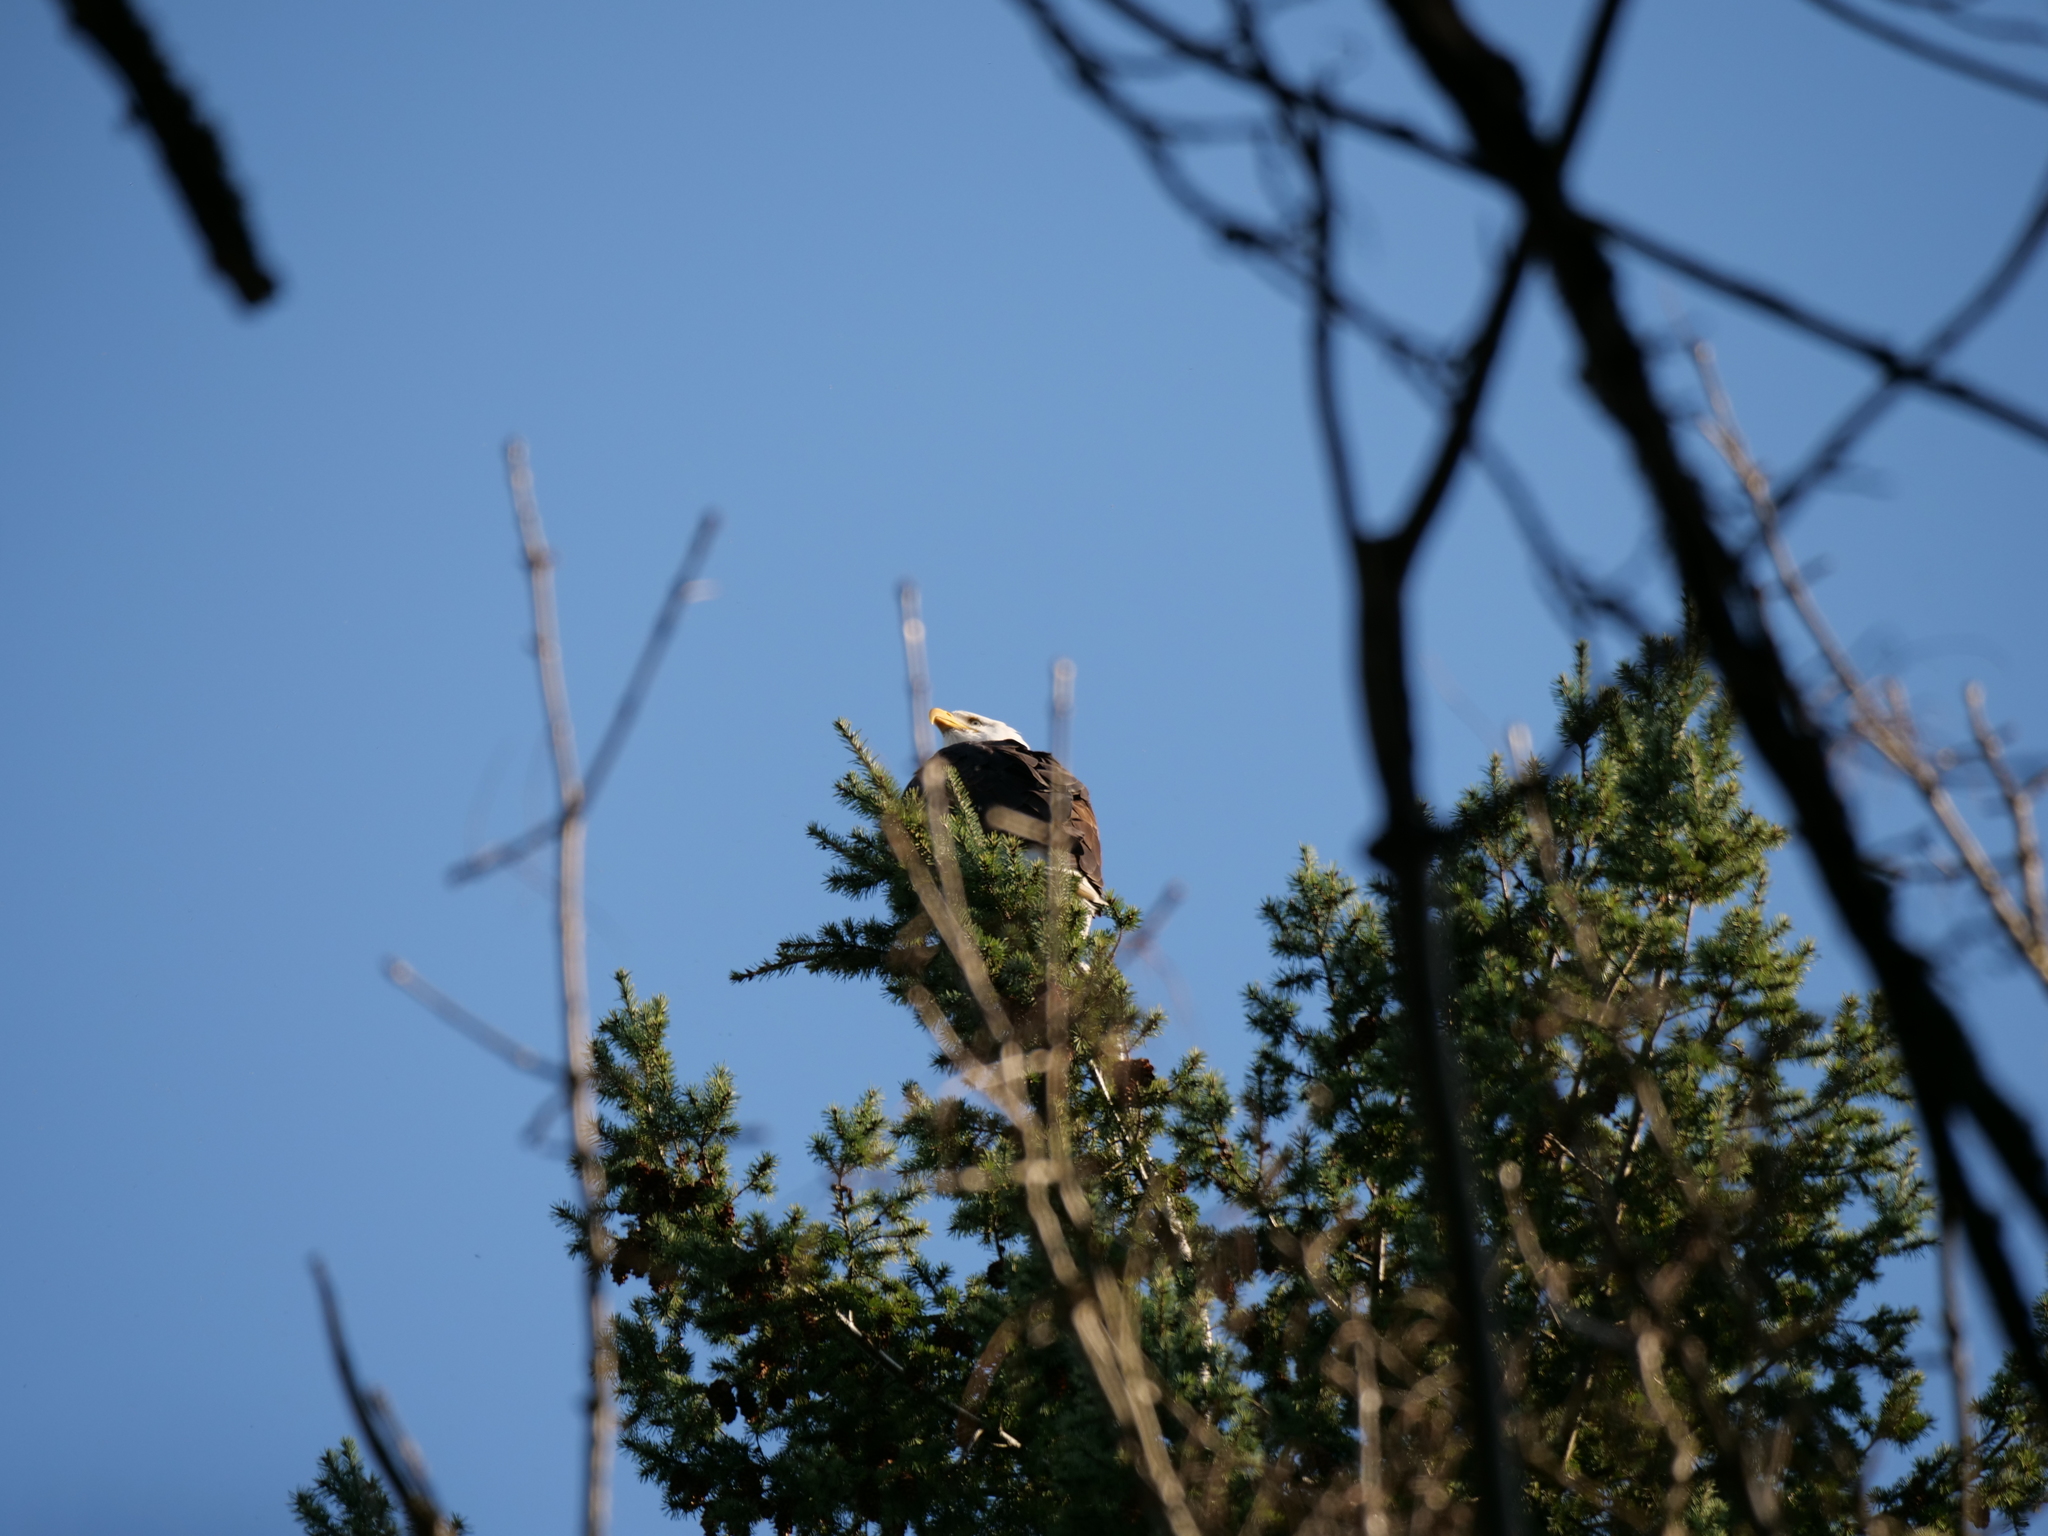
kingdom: Animalia
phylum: Chordata
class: Aves
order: Accipitriformes
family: Accipitridae
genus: Haliaeetus
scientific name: Haliaeetus leucocephalus
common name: Bald eagle
